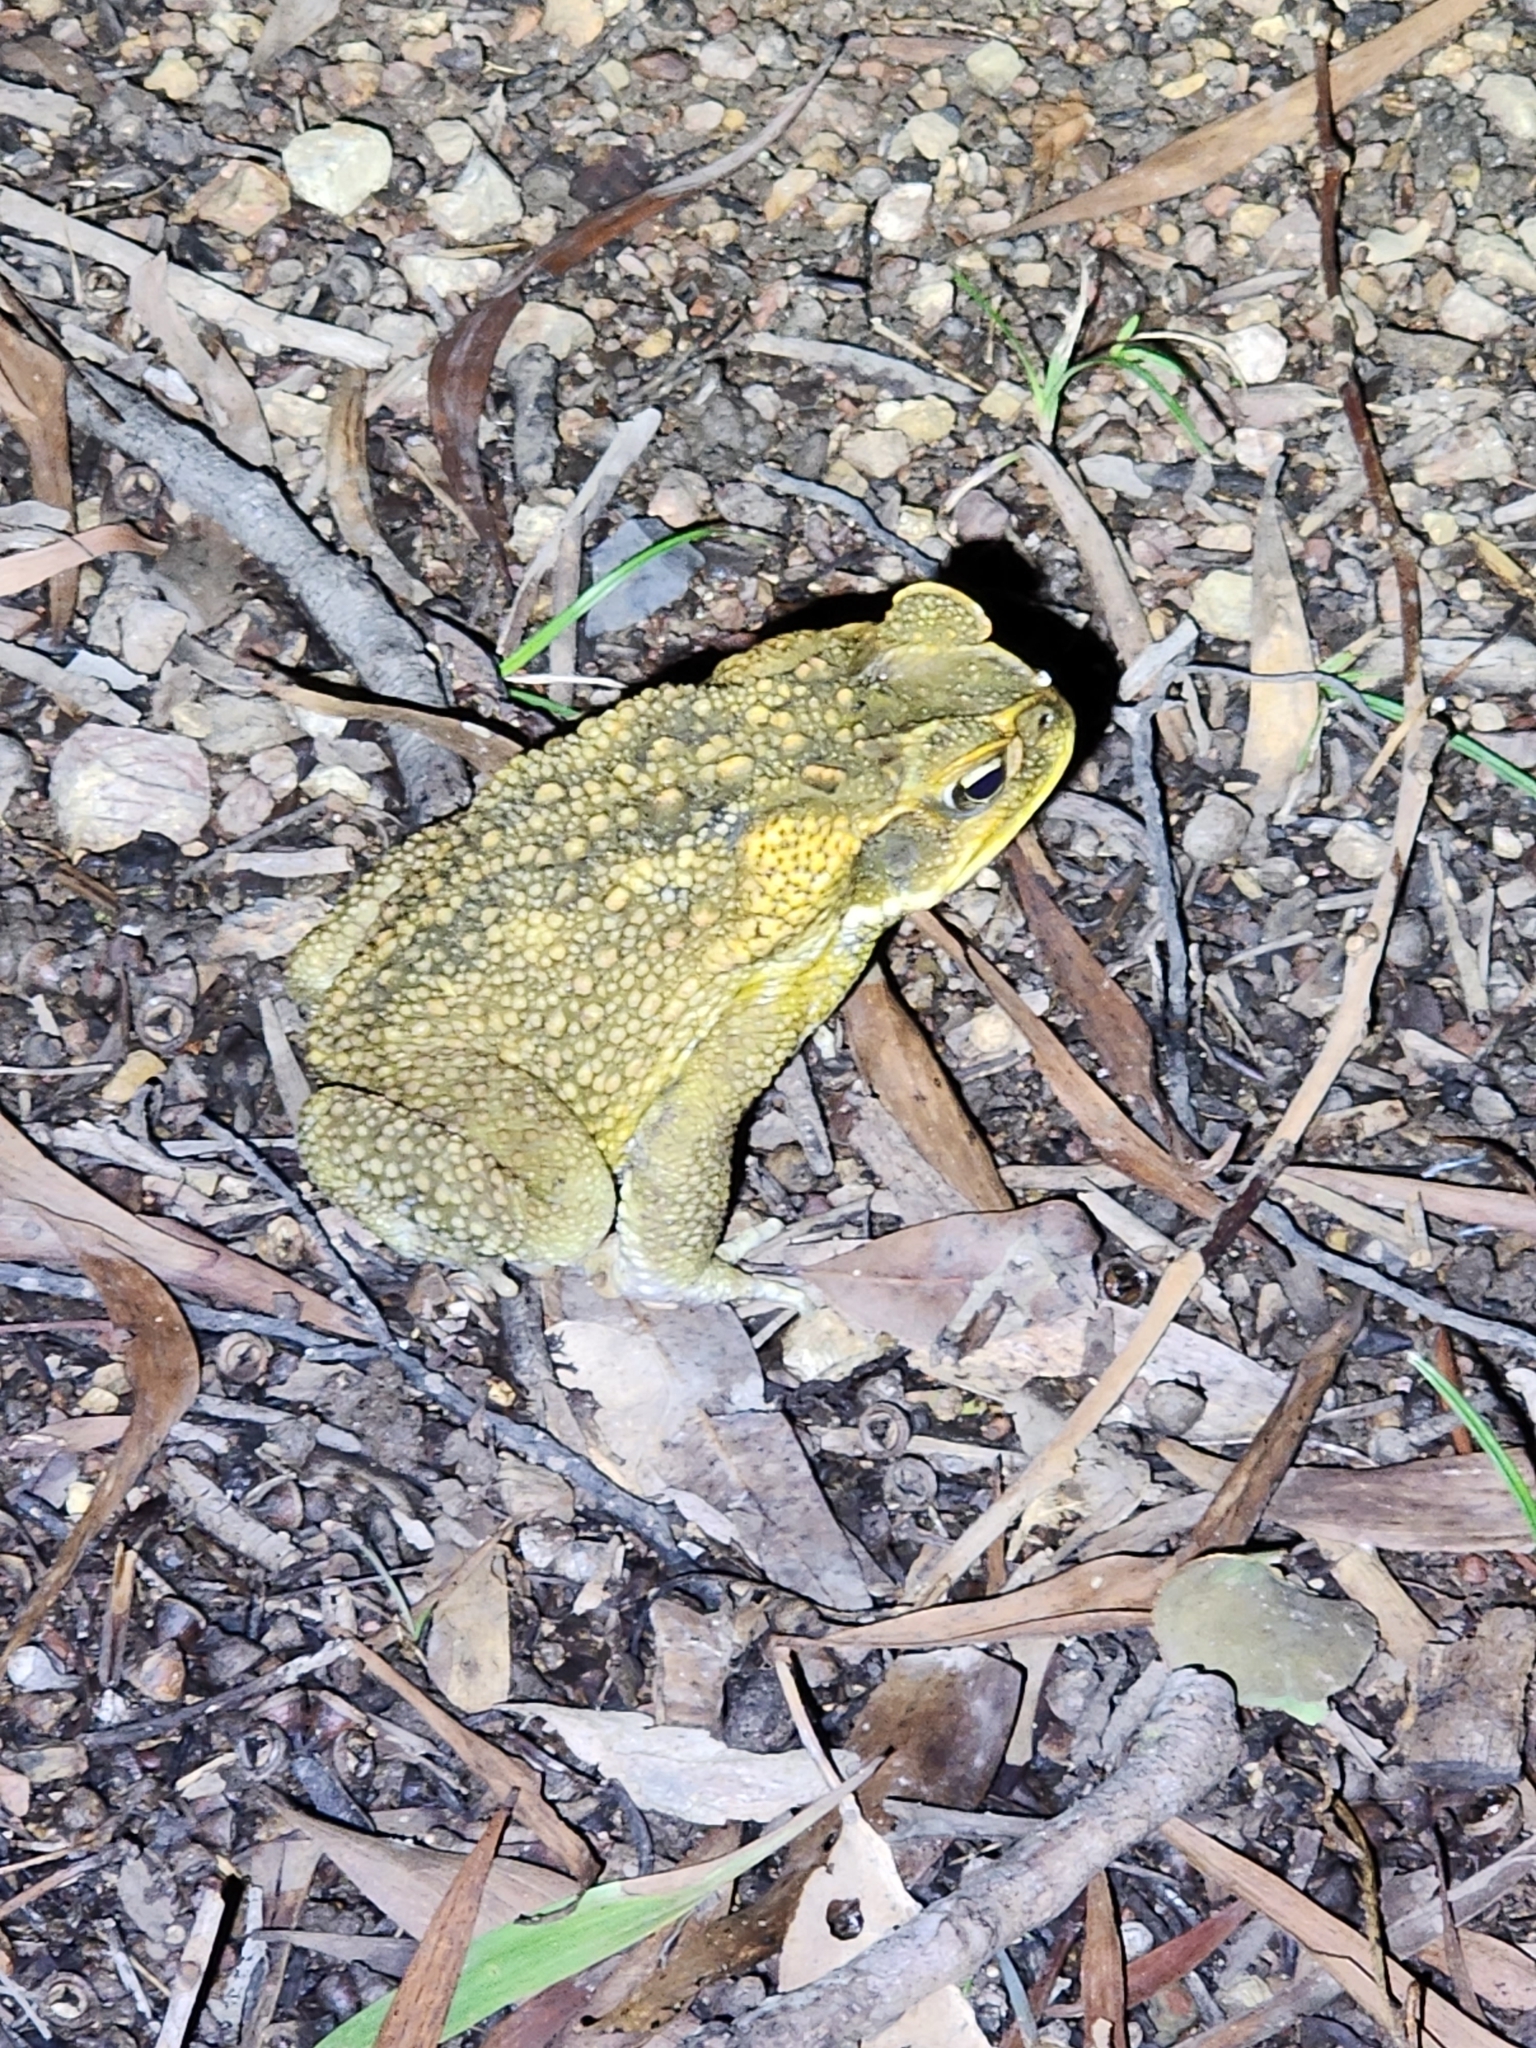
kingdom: Animalia
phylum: Chordata
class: Amphibia
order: Anura
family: Bufonidae
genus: Rhinella
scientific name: Rhinella marina
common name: Cane toad
